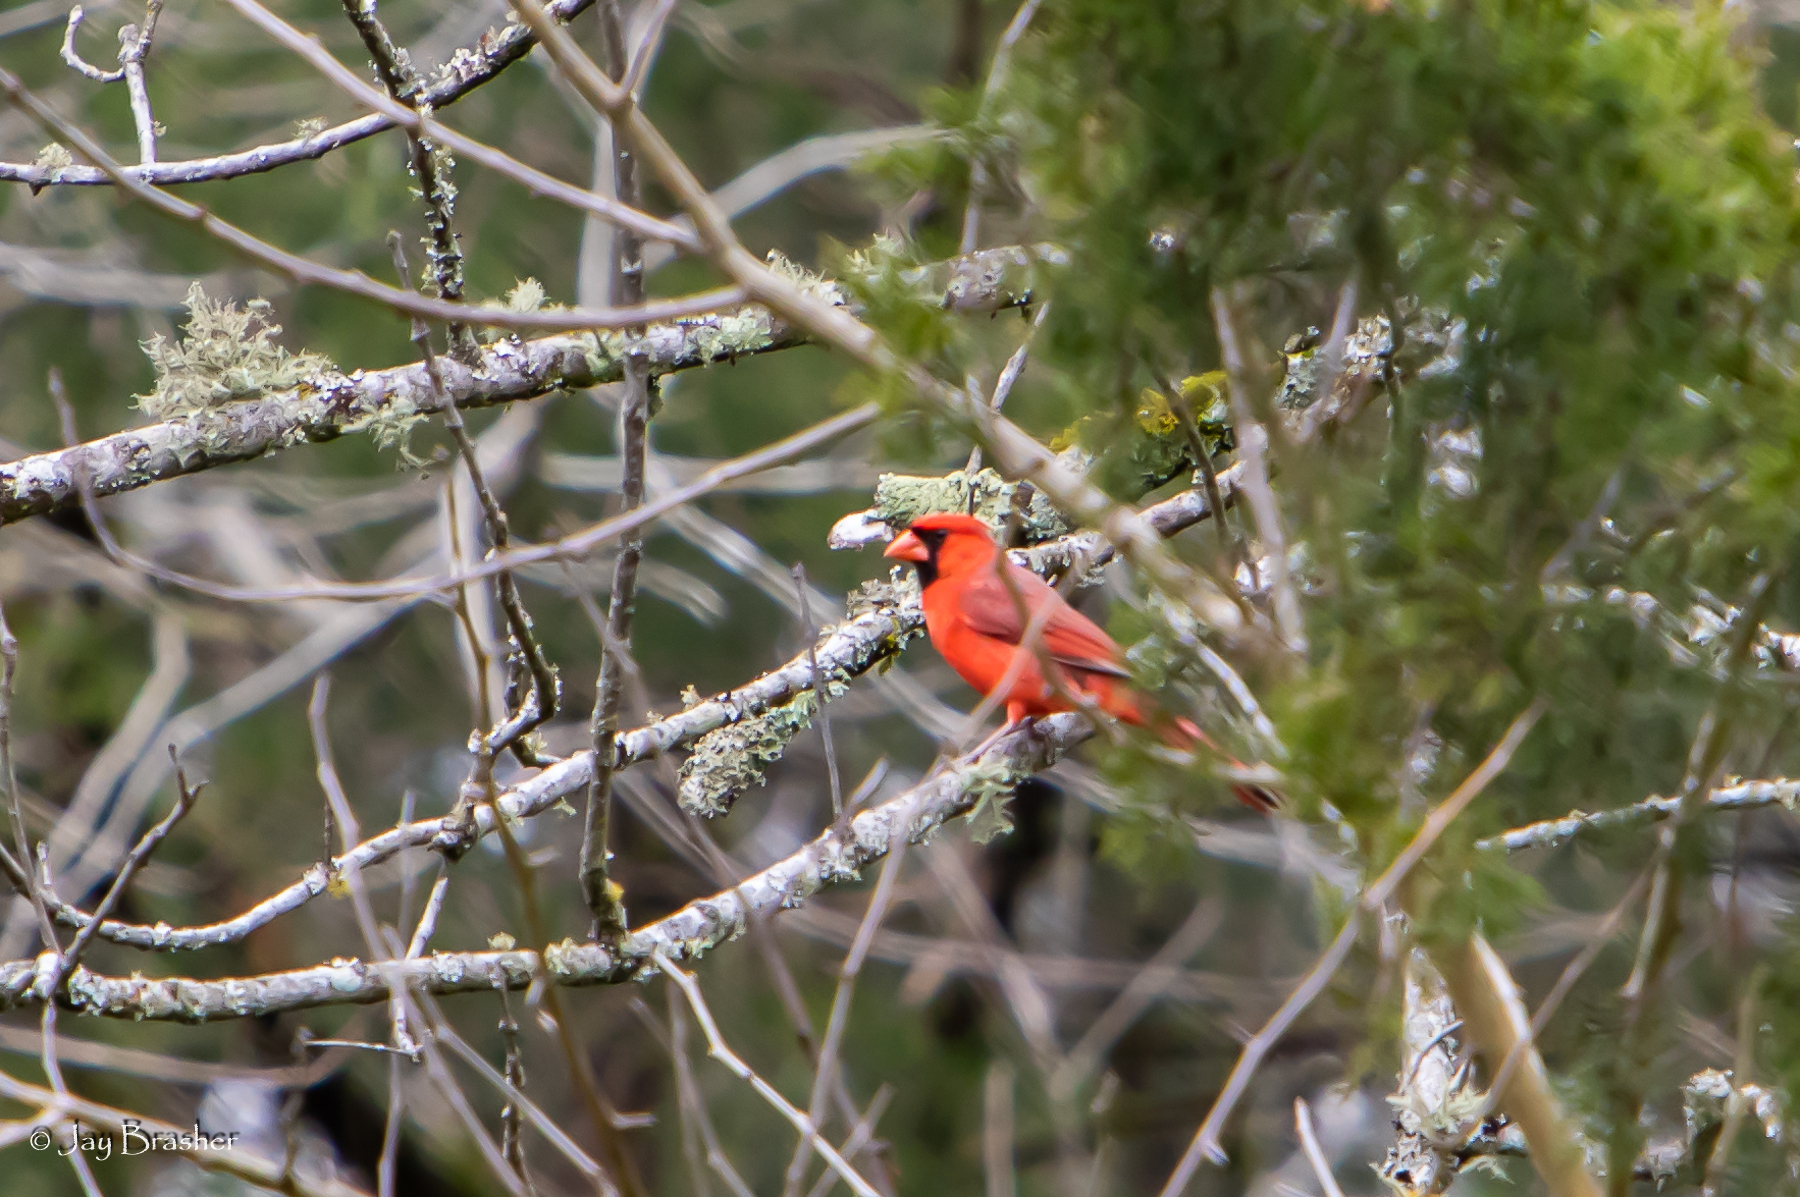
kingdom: Animalia
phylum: Chordata
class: Aves
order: Passeriformes
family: Cardinalidae
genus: Cardinalis
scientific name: Cardinalis cardinalis
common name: Northern cardinal
